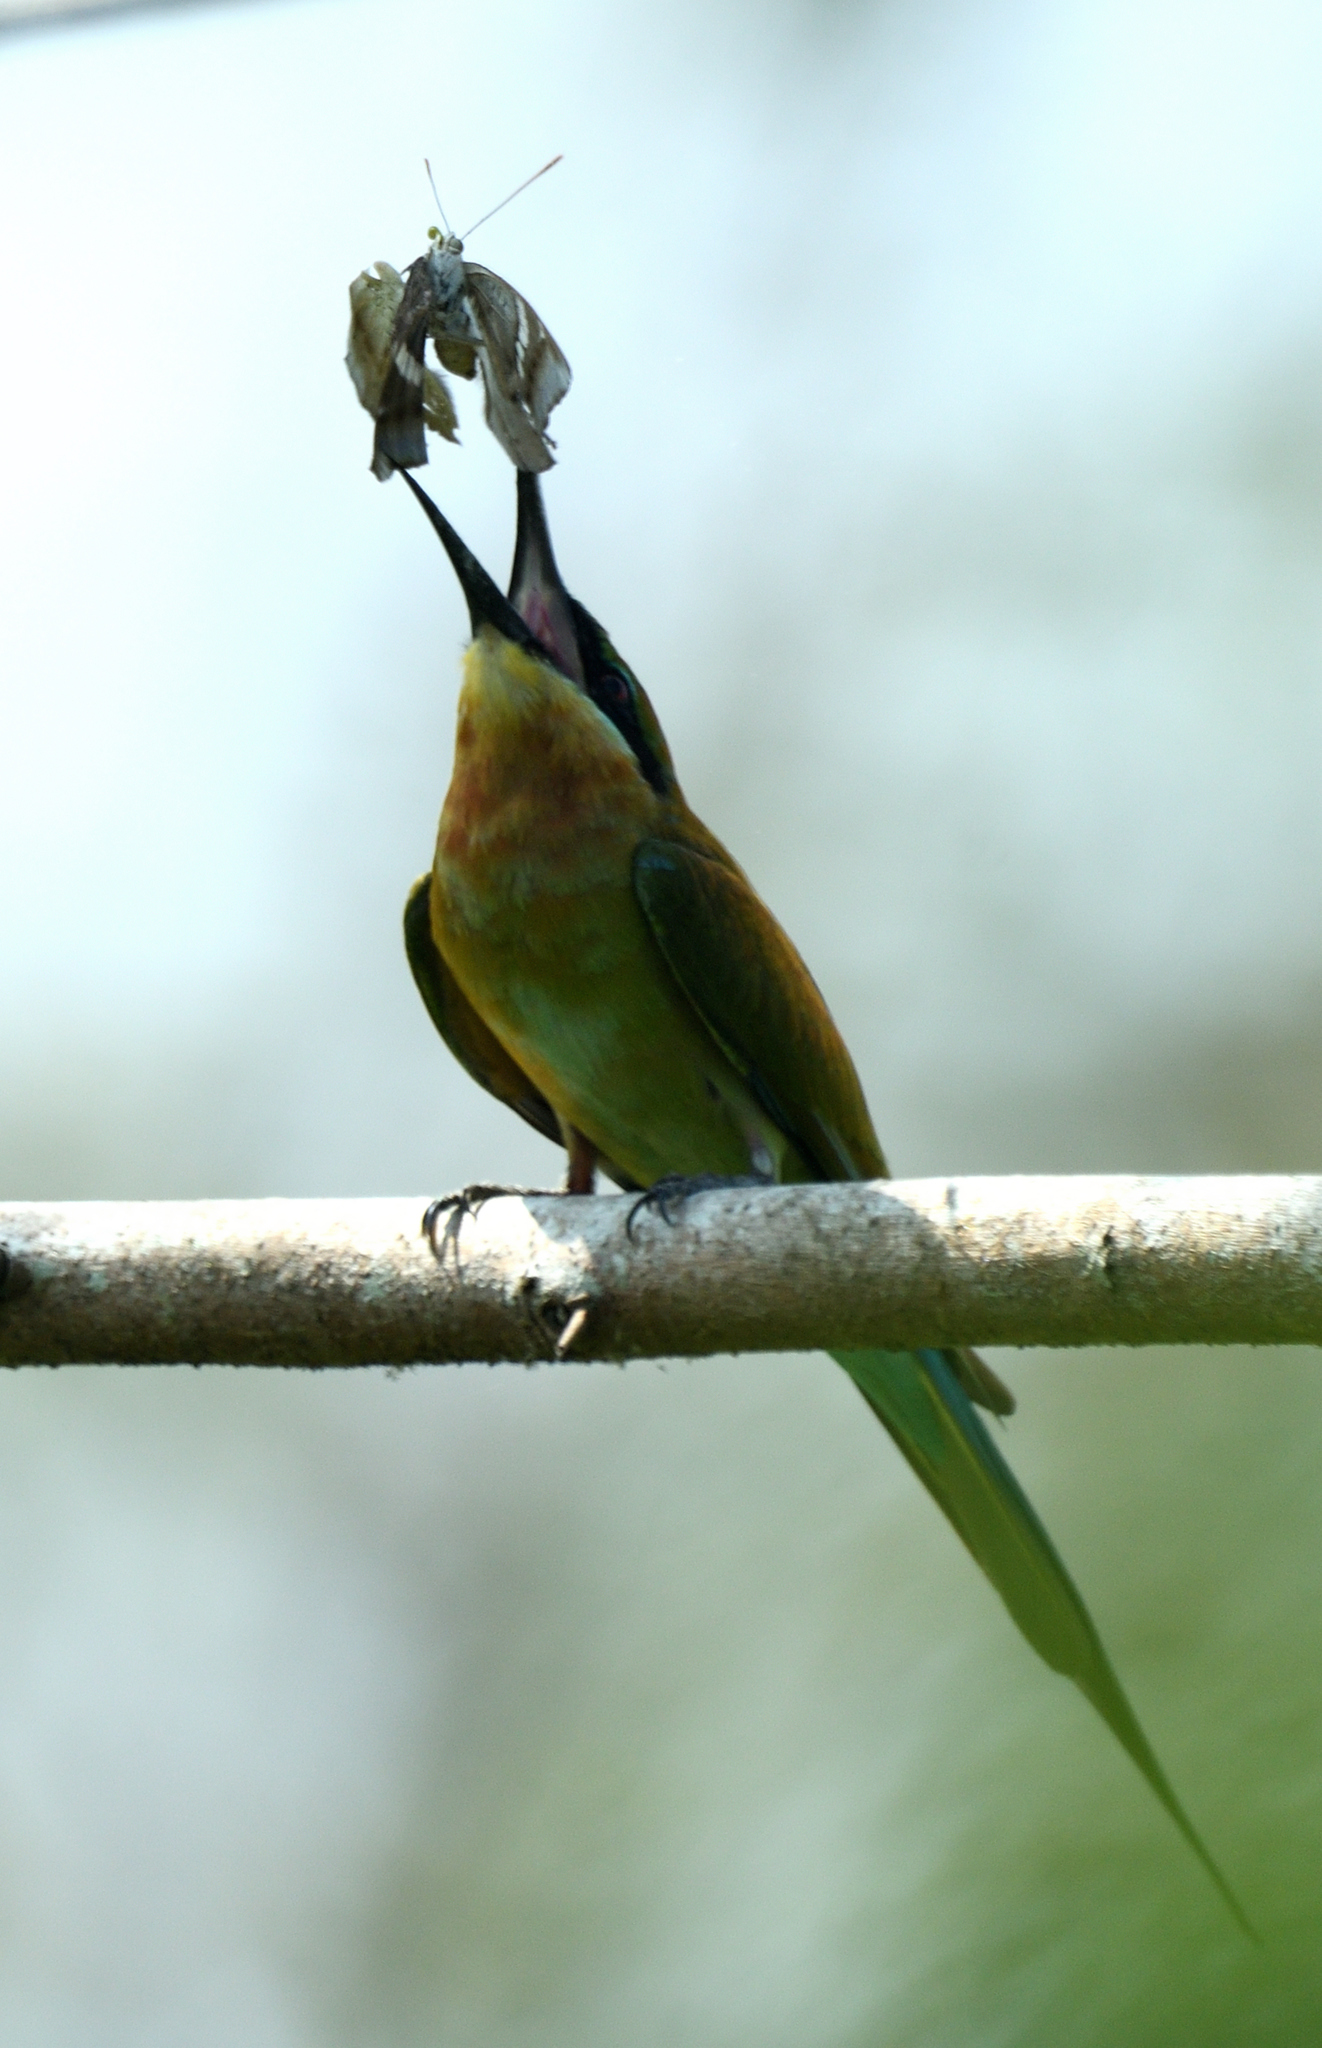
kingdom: Animalia
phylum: Chordata
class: Aves
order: Coraciiformes
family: Meropidae
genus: Merops
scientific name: Merops philippinus
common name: Blue-tailed bee-eater
